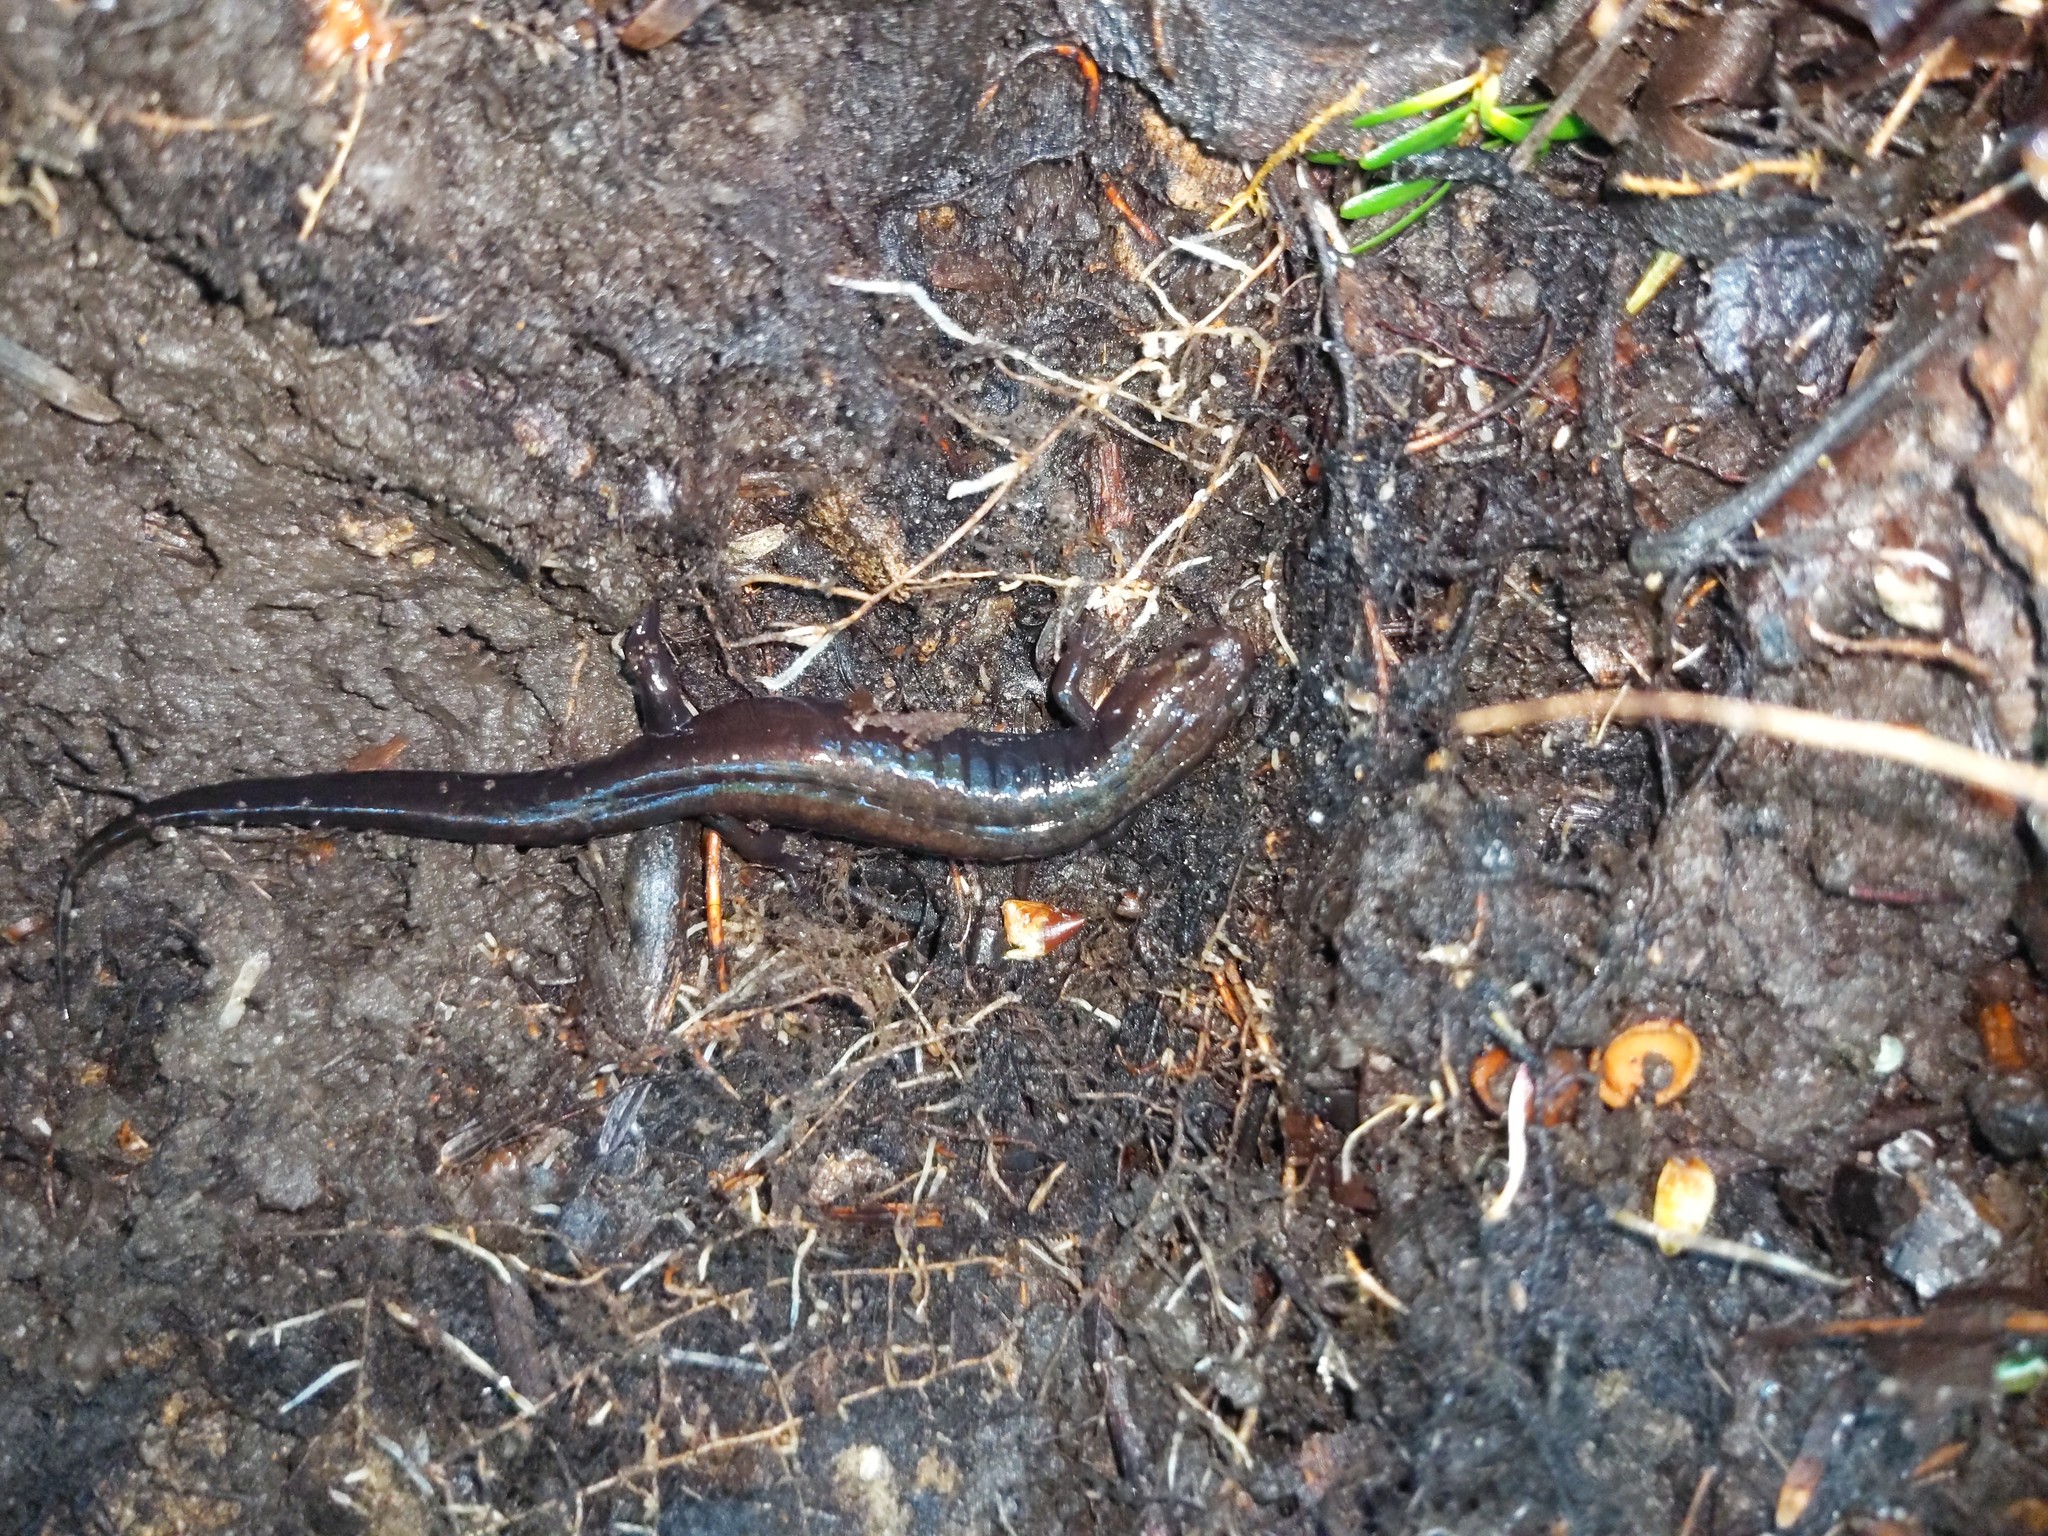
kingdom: Animalia
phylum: Chordata
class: Amphibia
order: Caudata
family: Plethodontidae
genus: Desmognathus
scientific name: Desmognathus ochrophaeus
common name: Allegheny mountain dusky salamander
